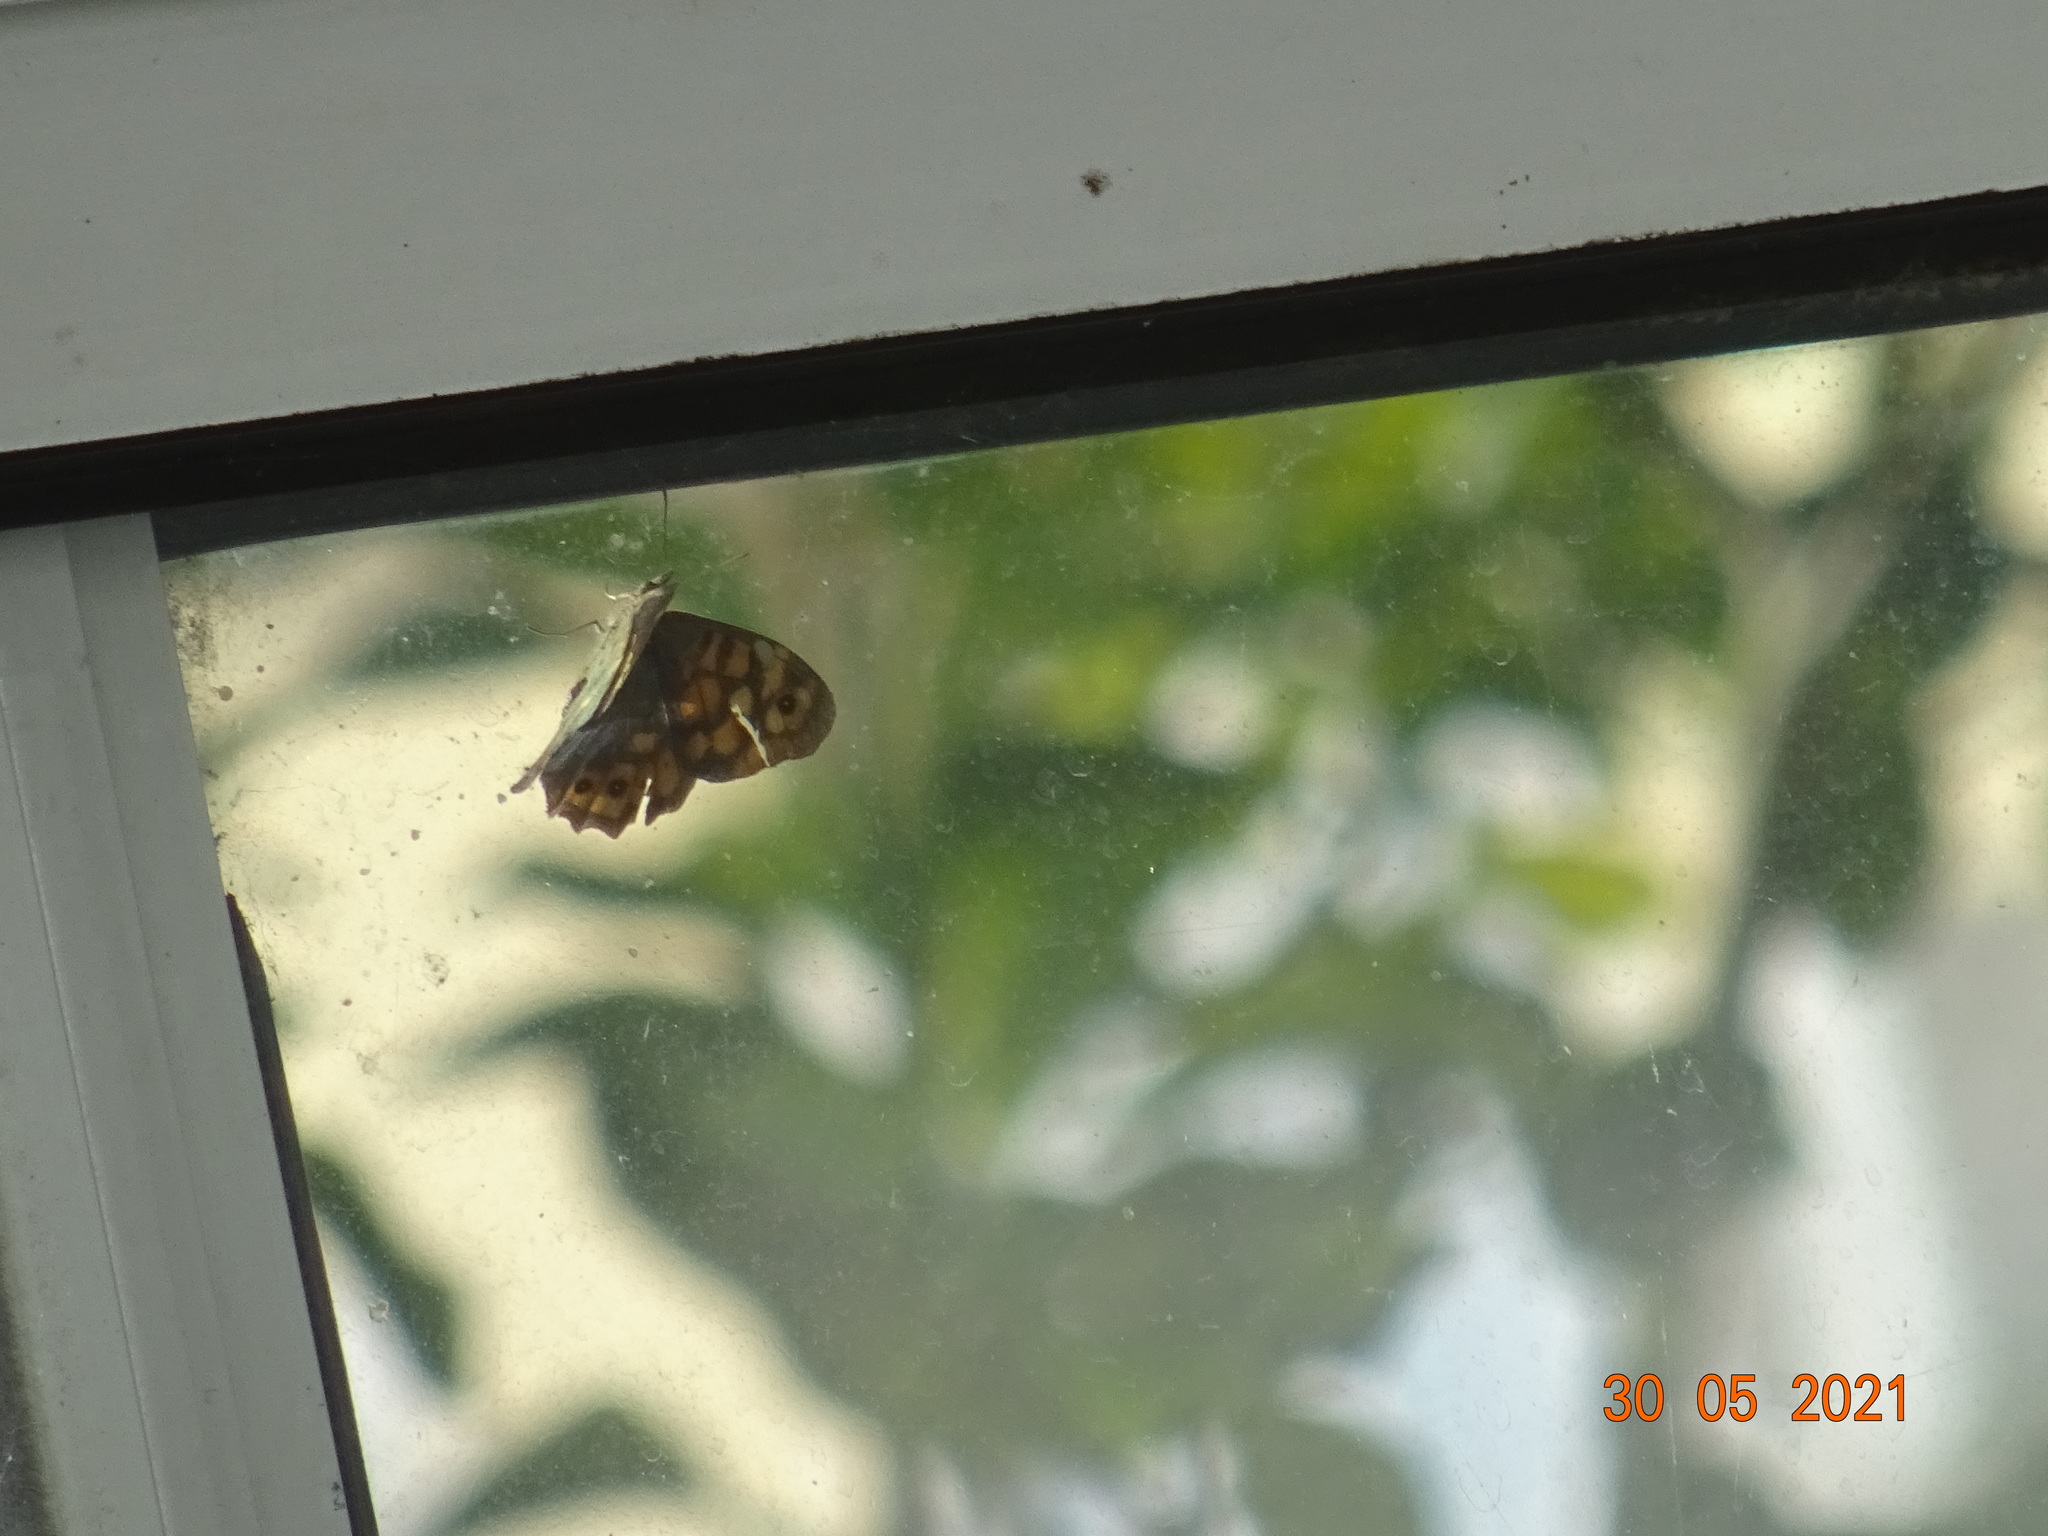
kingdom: Animalia
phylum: Arthropoda
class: Insecta
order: Lepidoptera
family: Nymphalidae
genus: Pararge
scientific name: Pararge aegeria
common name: Speckled wood
